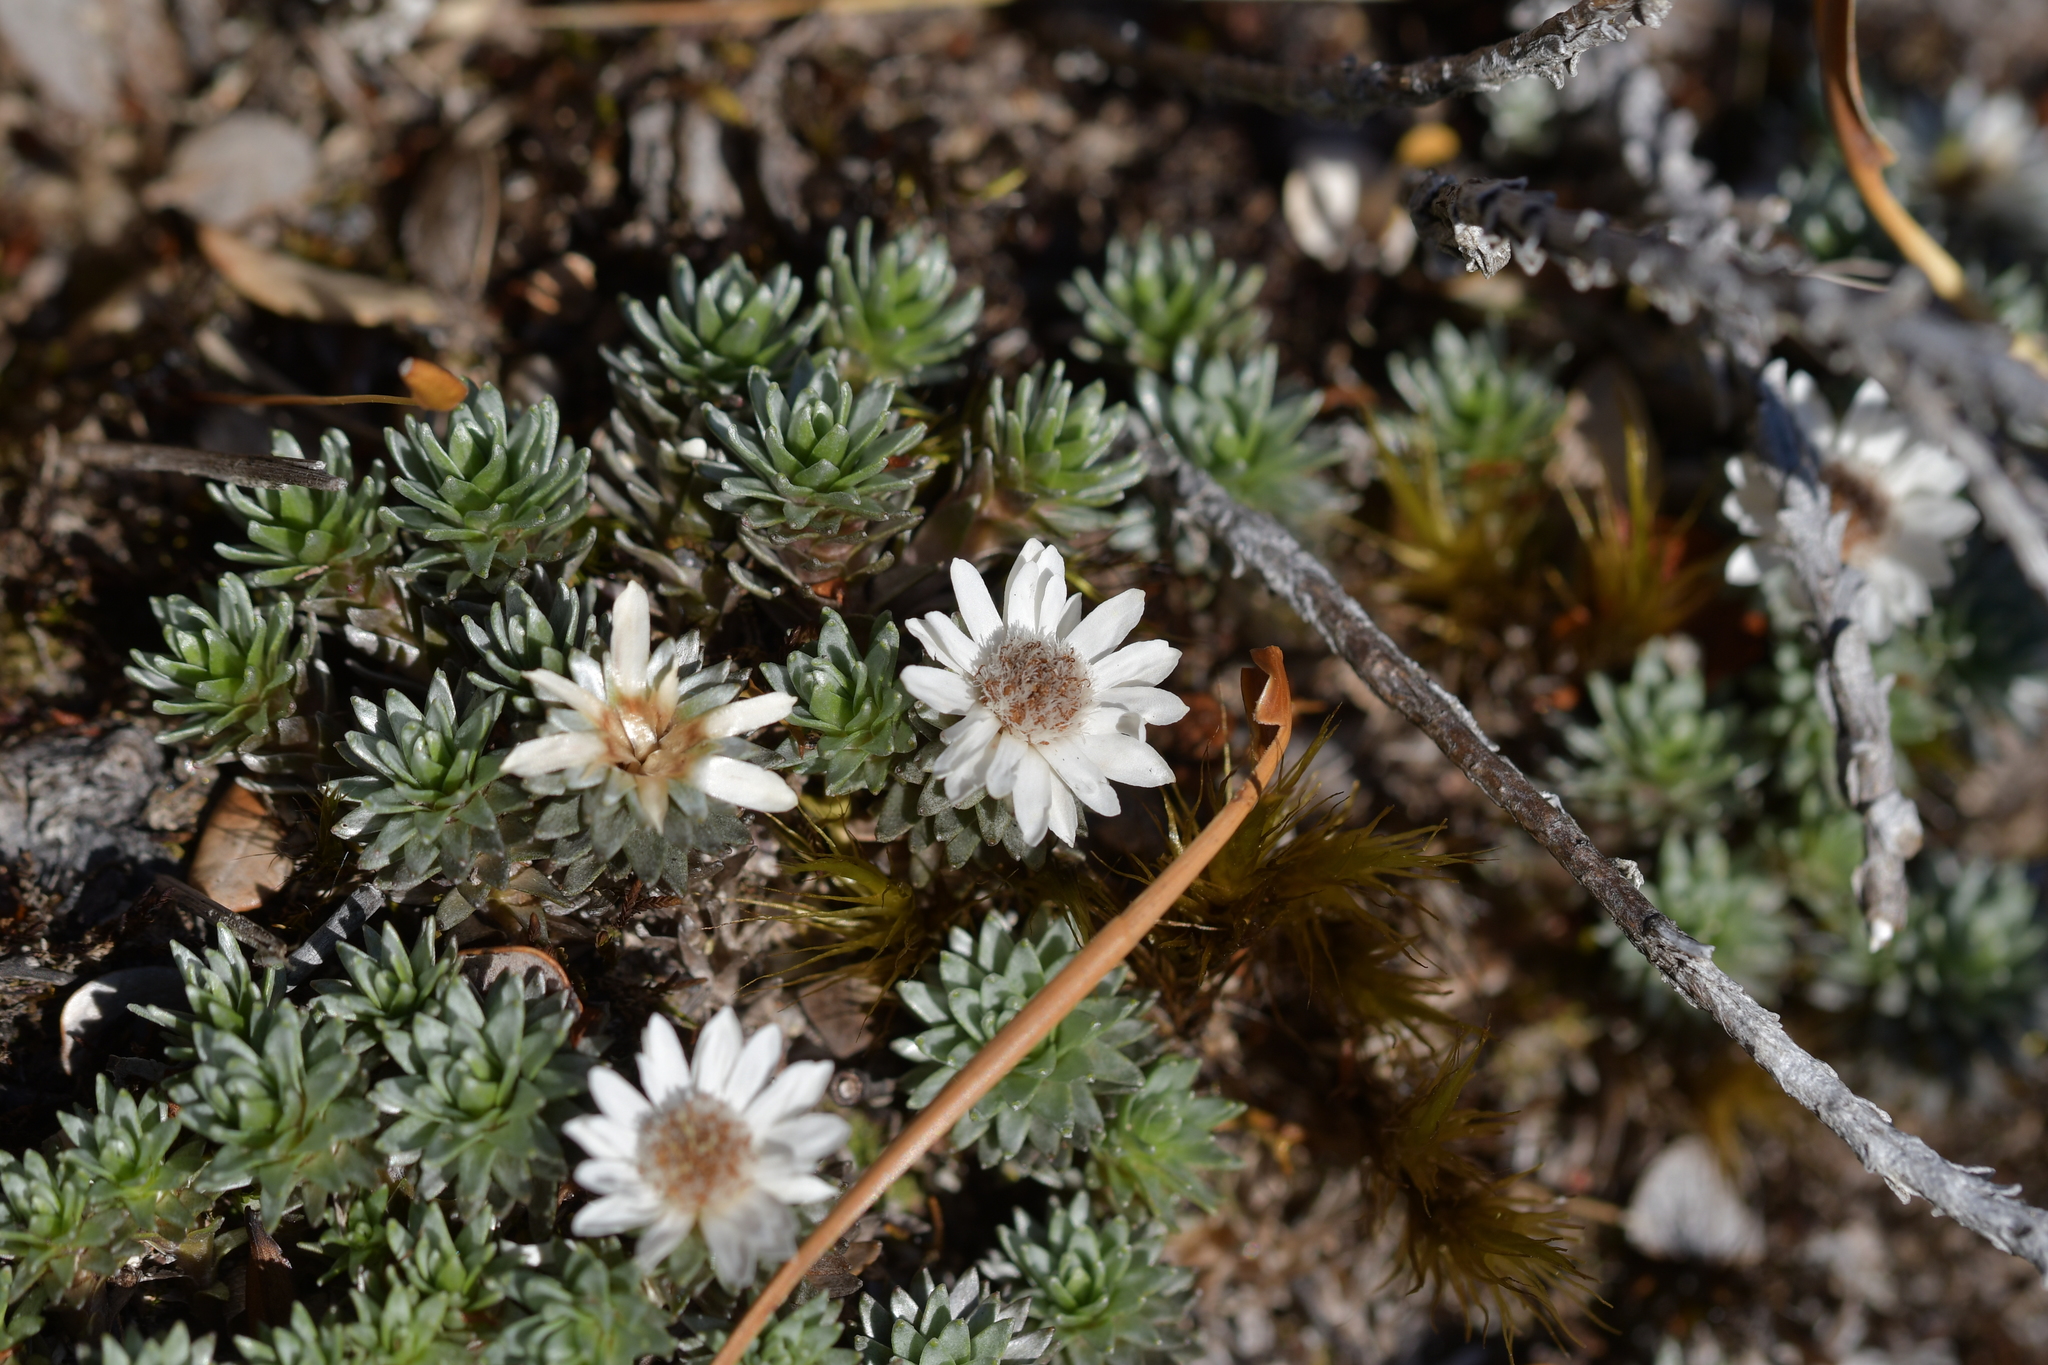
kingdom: Plantae
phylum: Tracheophyta
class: Magnoliopsida
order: Asterales
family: Asteraceae
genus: Raoulia
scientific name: Raoulia grandiflora
